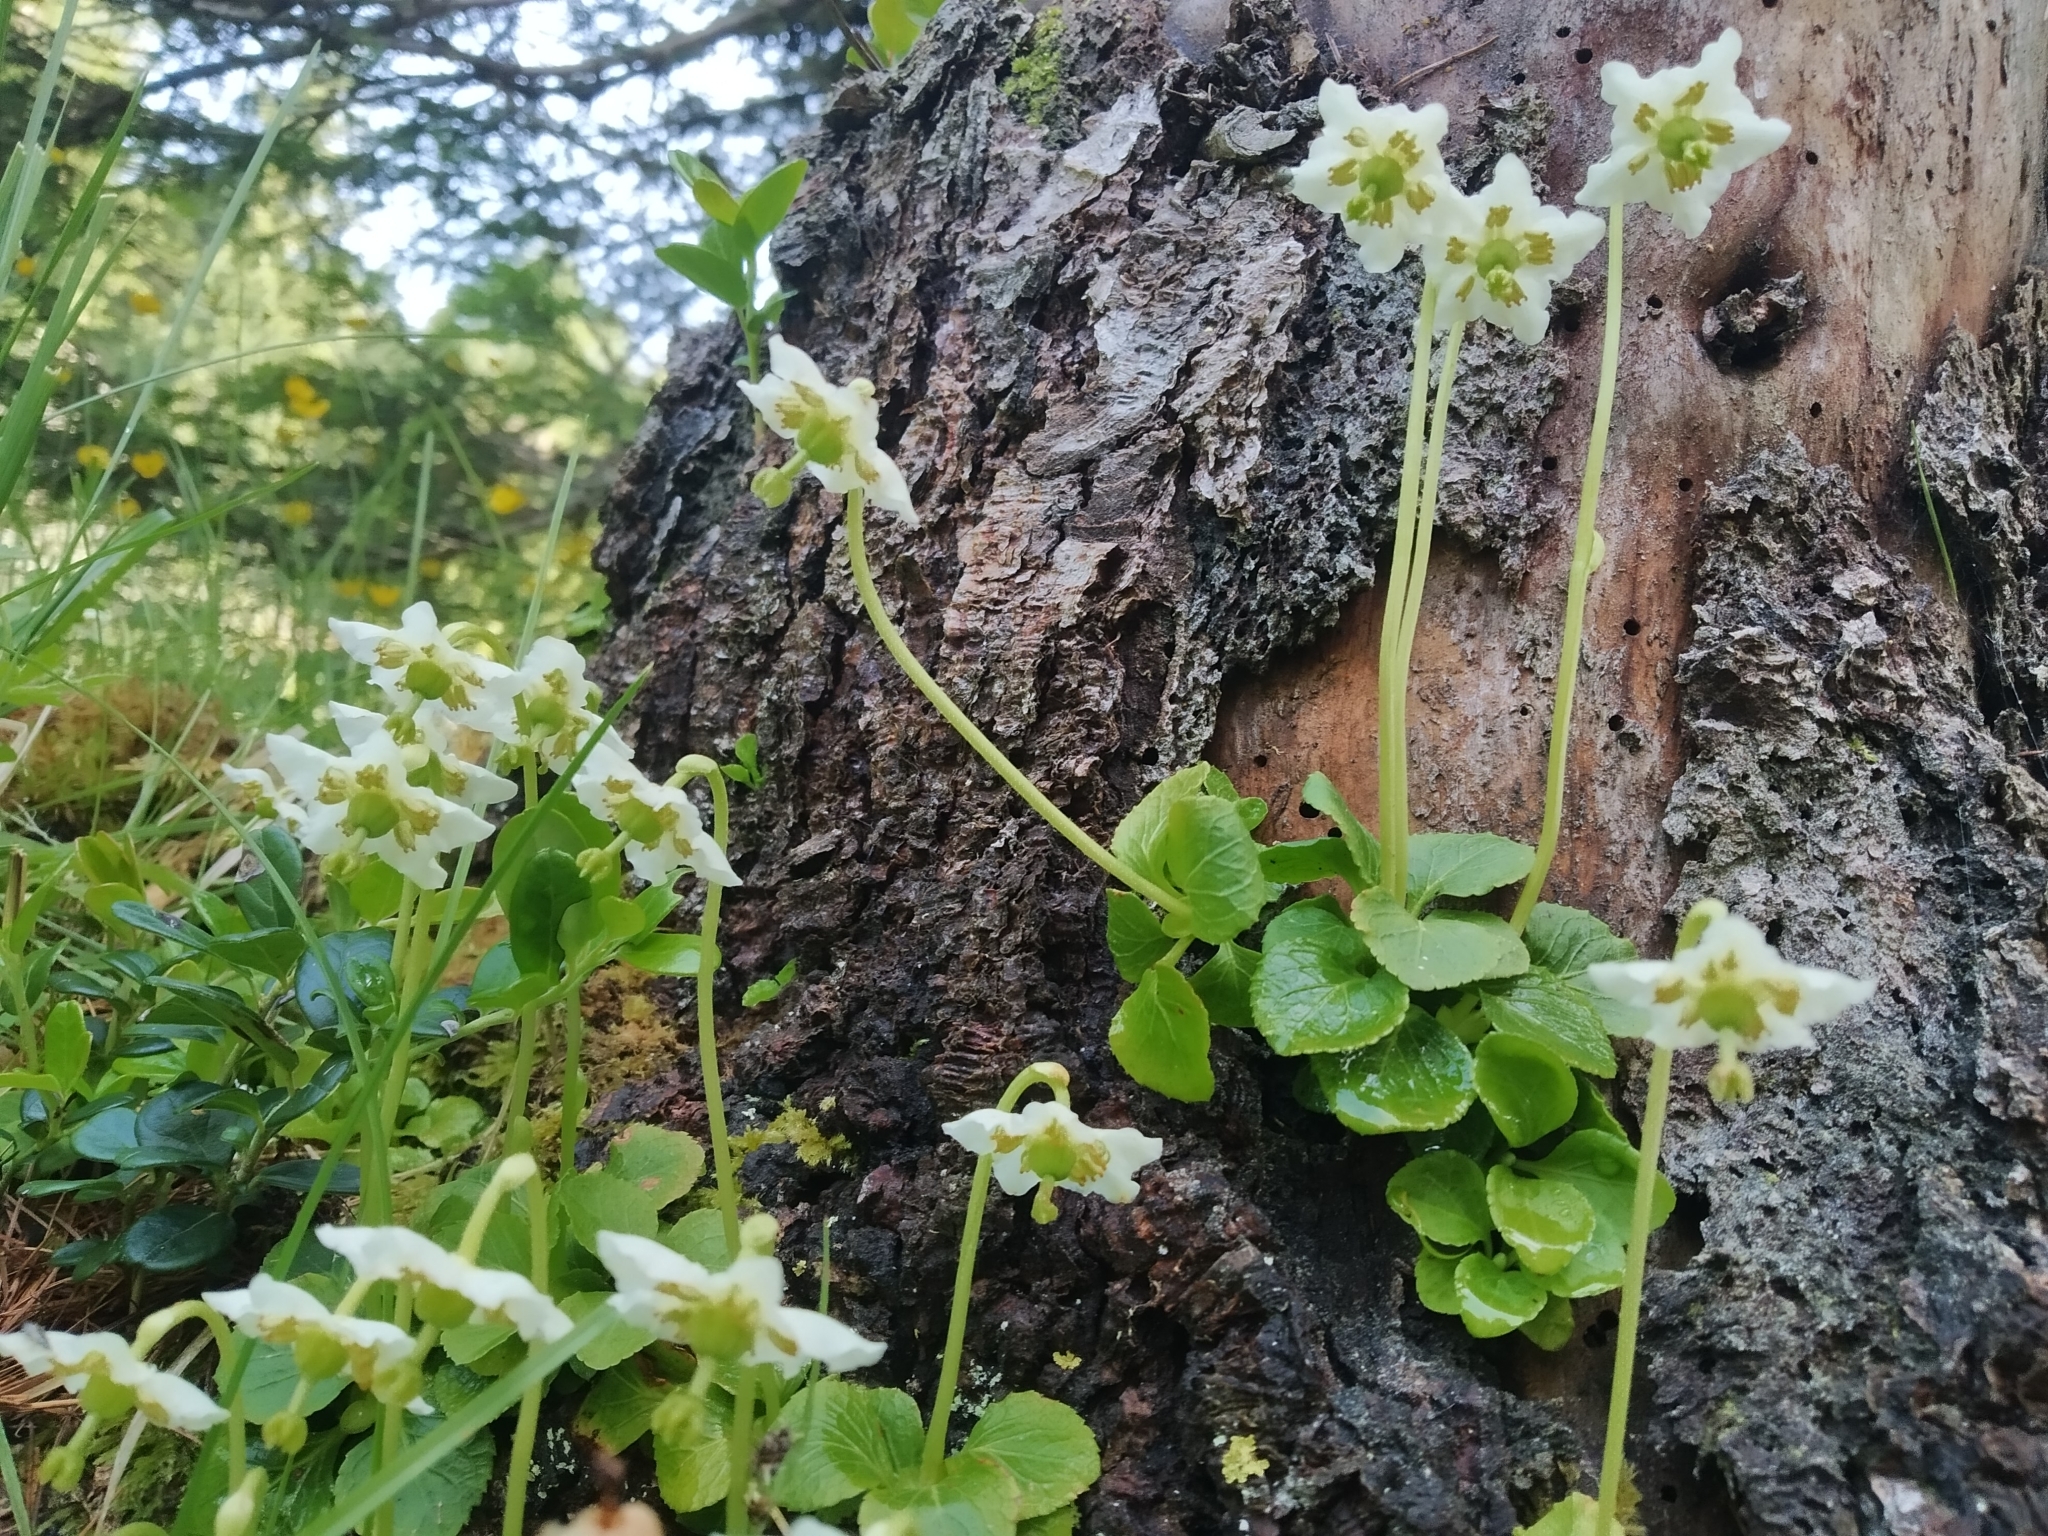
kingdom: Plantae
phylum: Tracheophyta
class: Magnoliopsida
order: Ericales
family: Ericaceae
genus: Moneses
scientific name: Moneses uniflora
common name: One-flowered wintergreen
